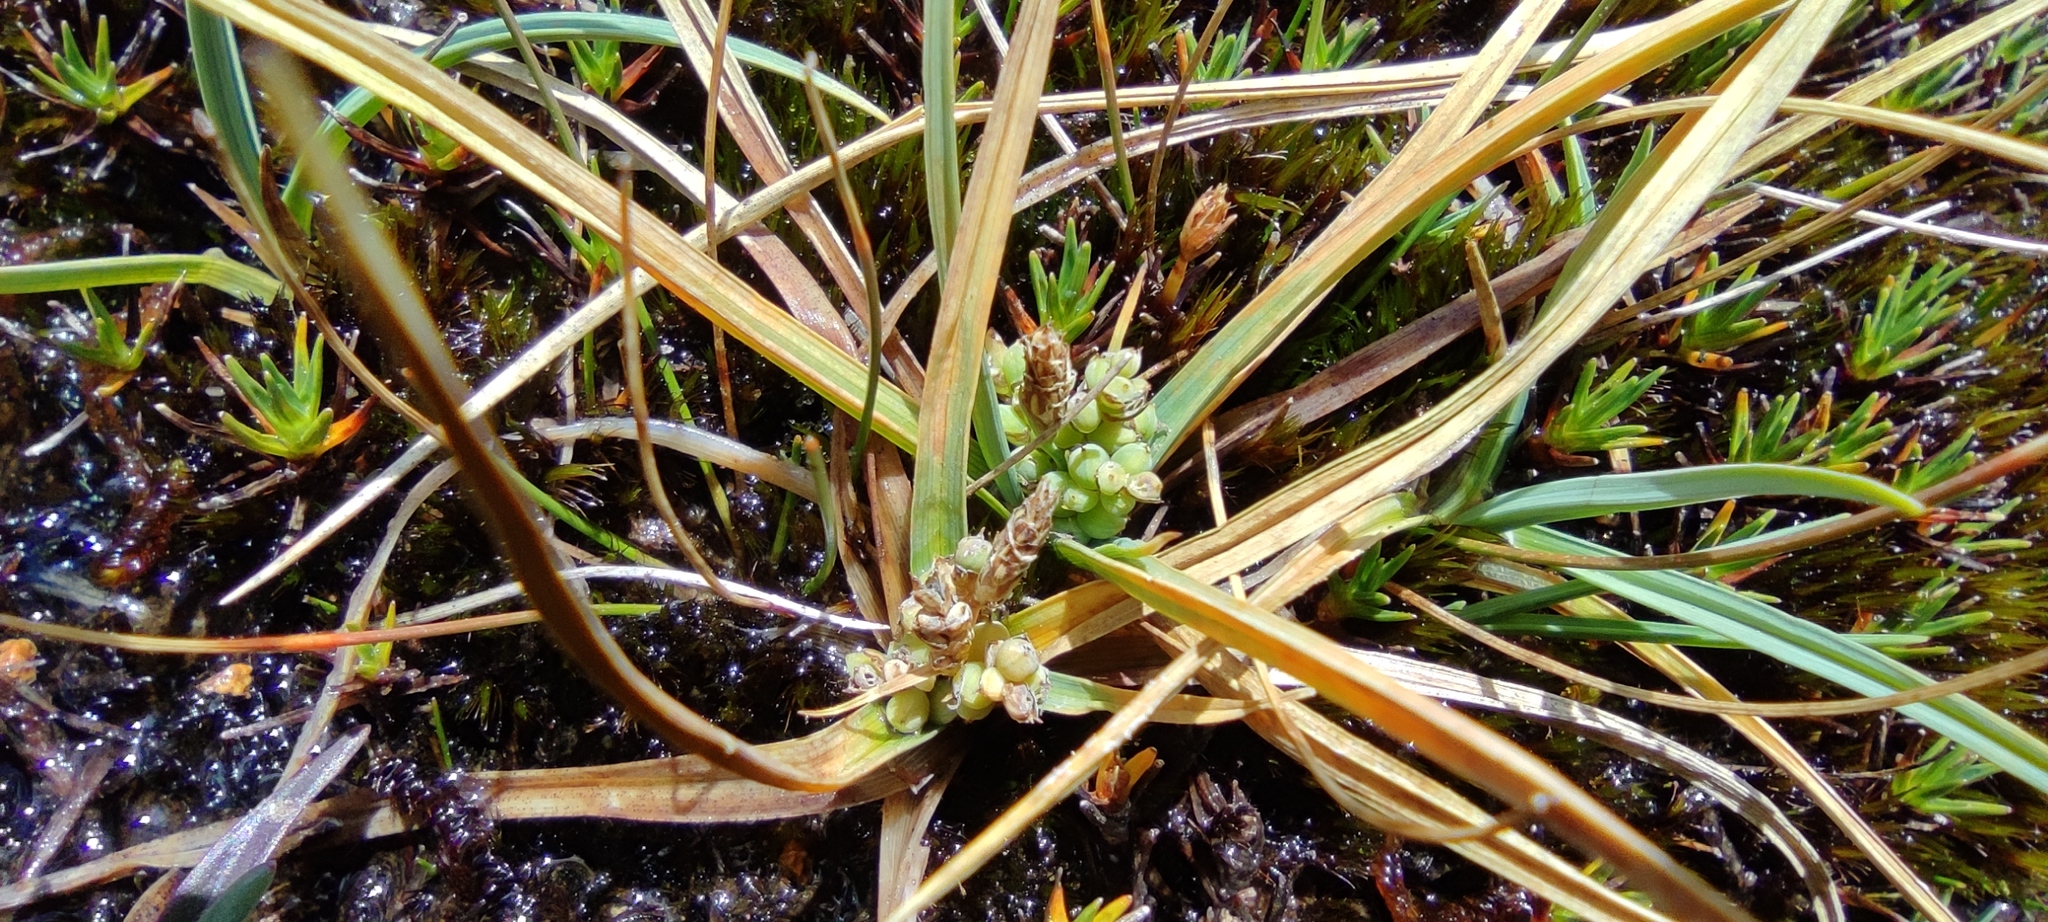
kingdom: Plantae
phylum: Tracheophyta
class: Liliopsida
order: Poales
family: Cyperaceae
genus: Carex
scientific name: Carex brachycalama
